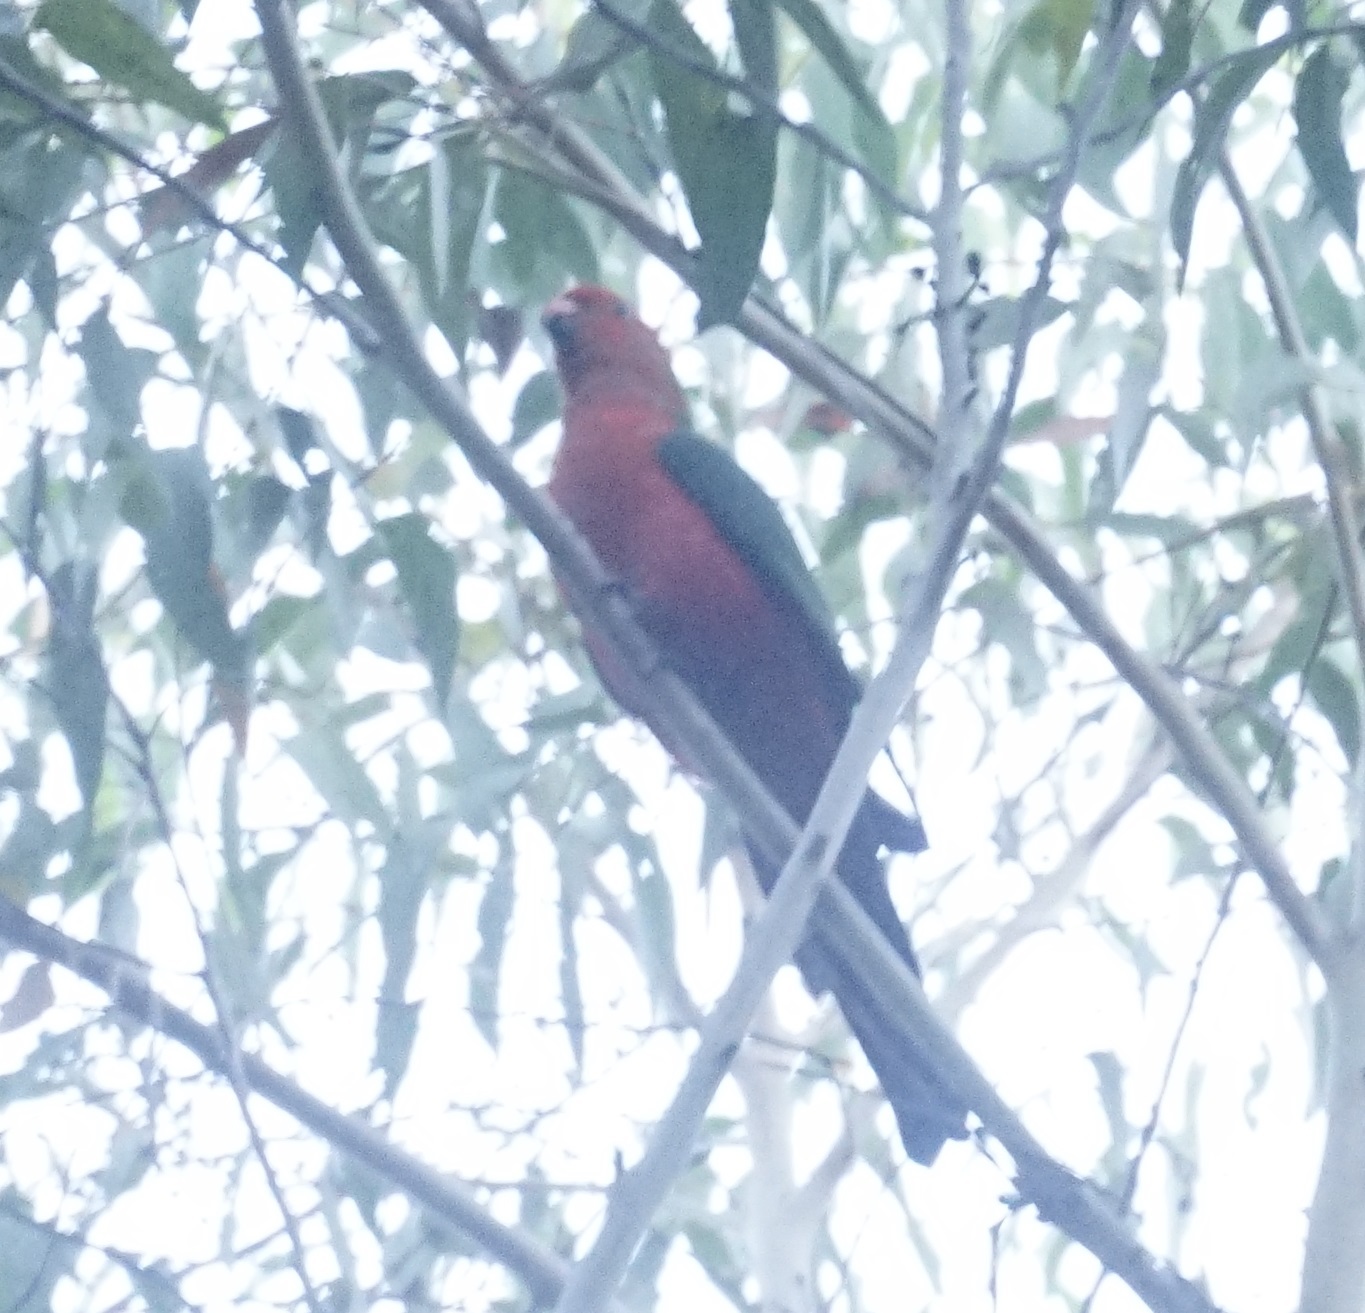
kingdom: Animalia
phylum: Chordata
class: Aves
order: Psittaciformes
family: Psittacidae
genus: Alisterus
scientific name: Alisterus scapularis
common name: Australian king parrot
